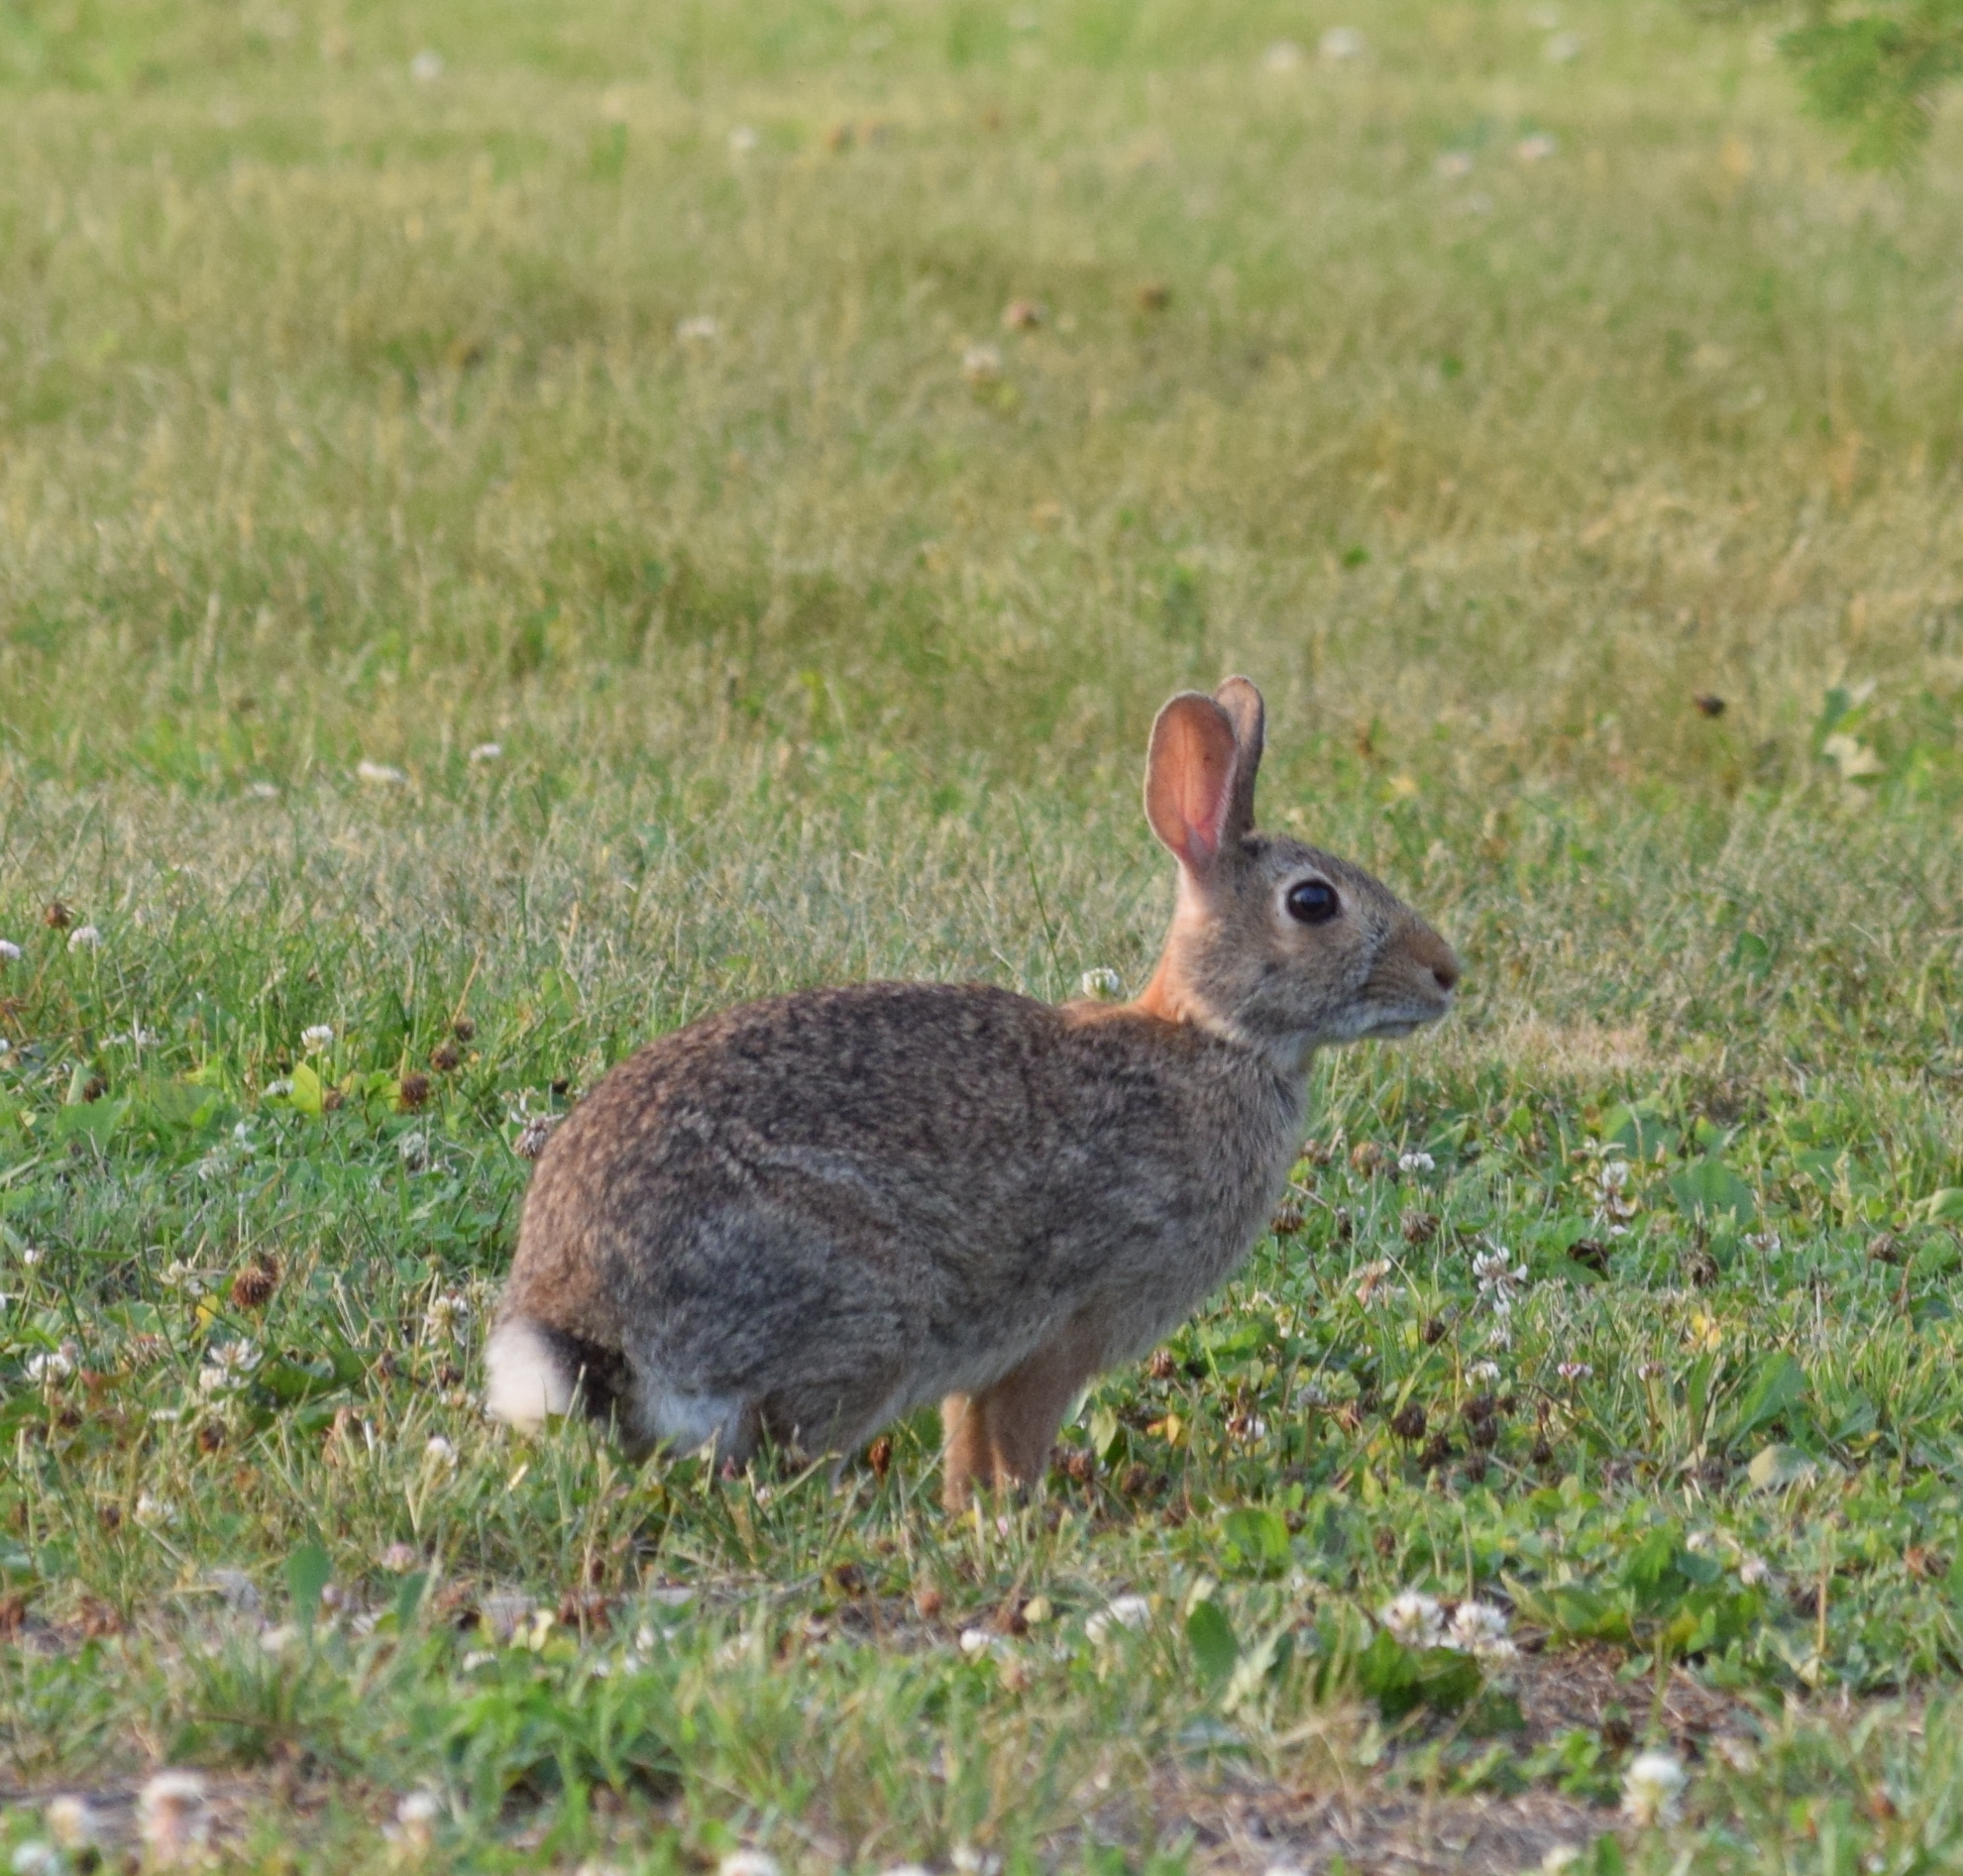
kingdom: Animalia
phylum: Chordata
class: Mammalia
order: Lagomorpha
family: Leporidae
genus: Sylvilagus
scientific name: Sylvilagus floridanus
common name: Eastern cottontail
